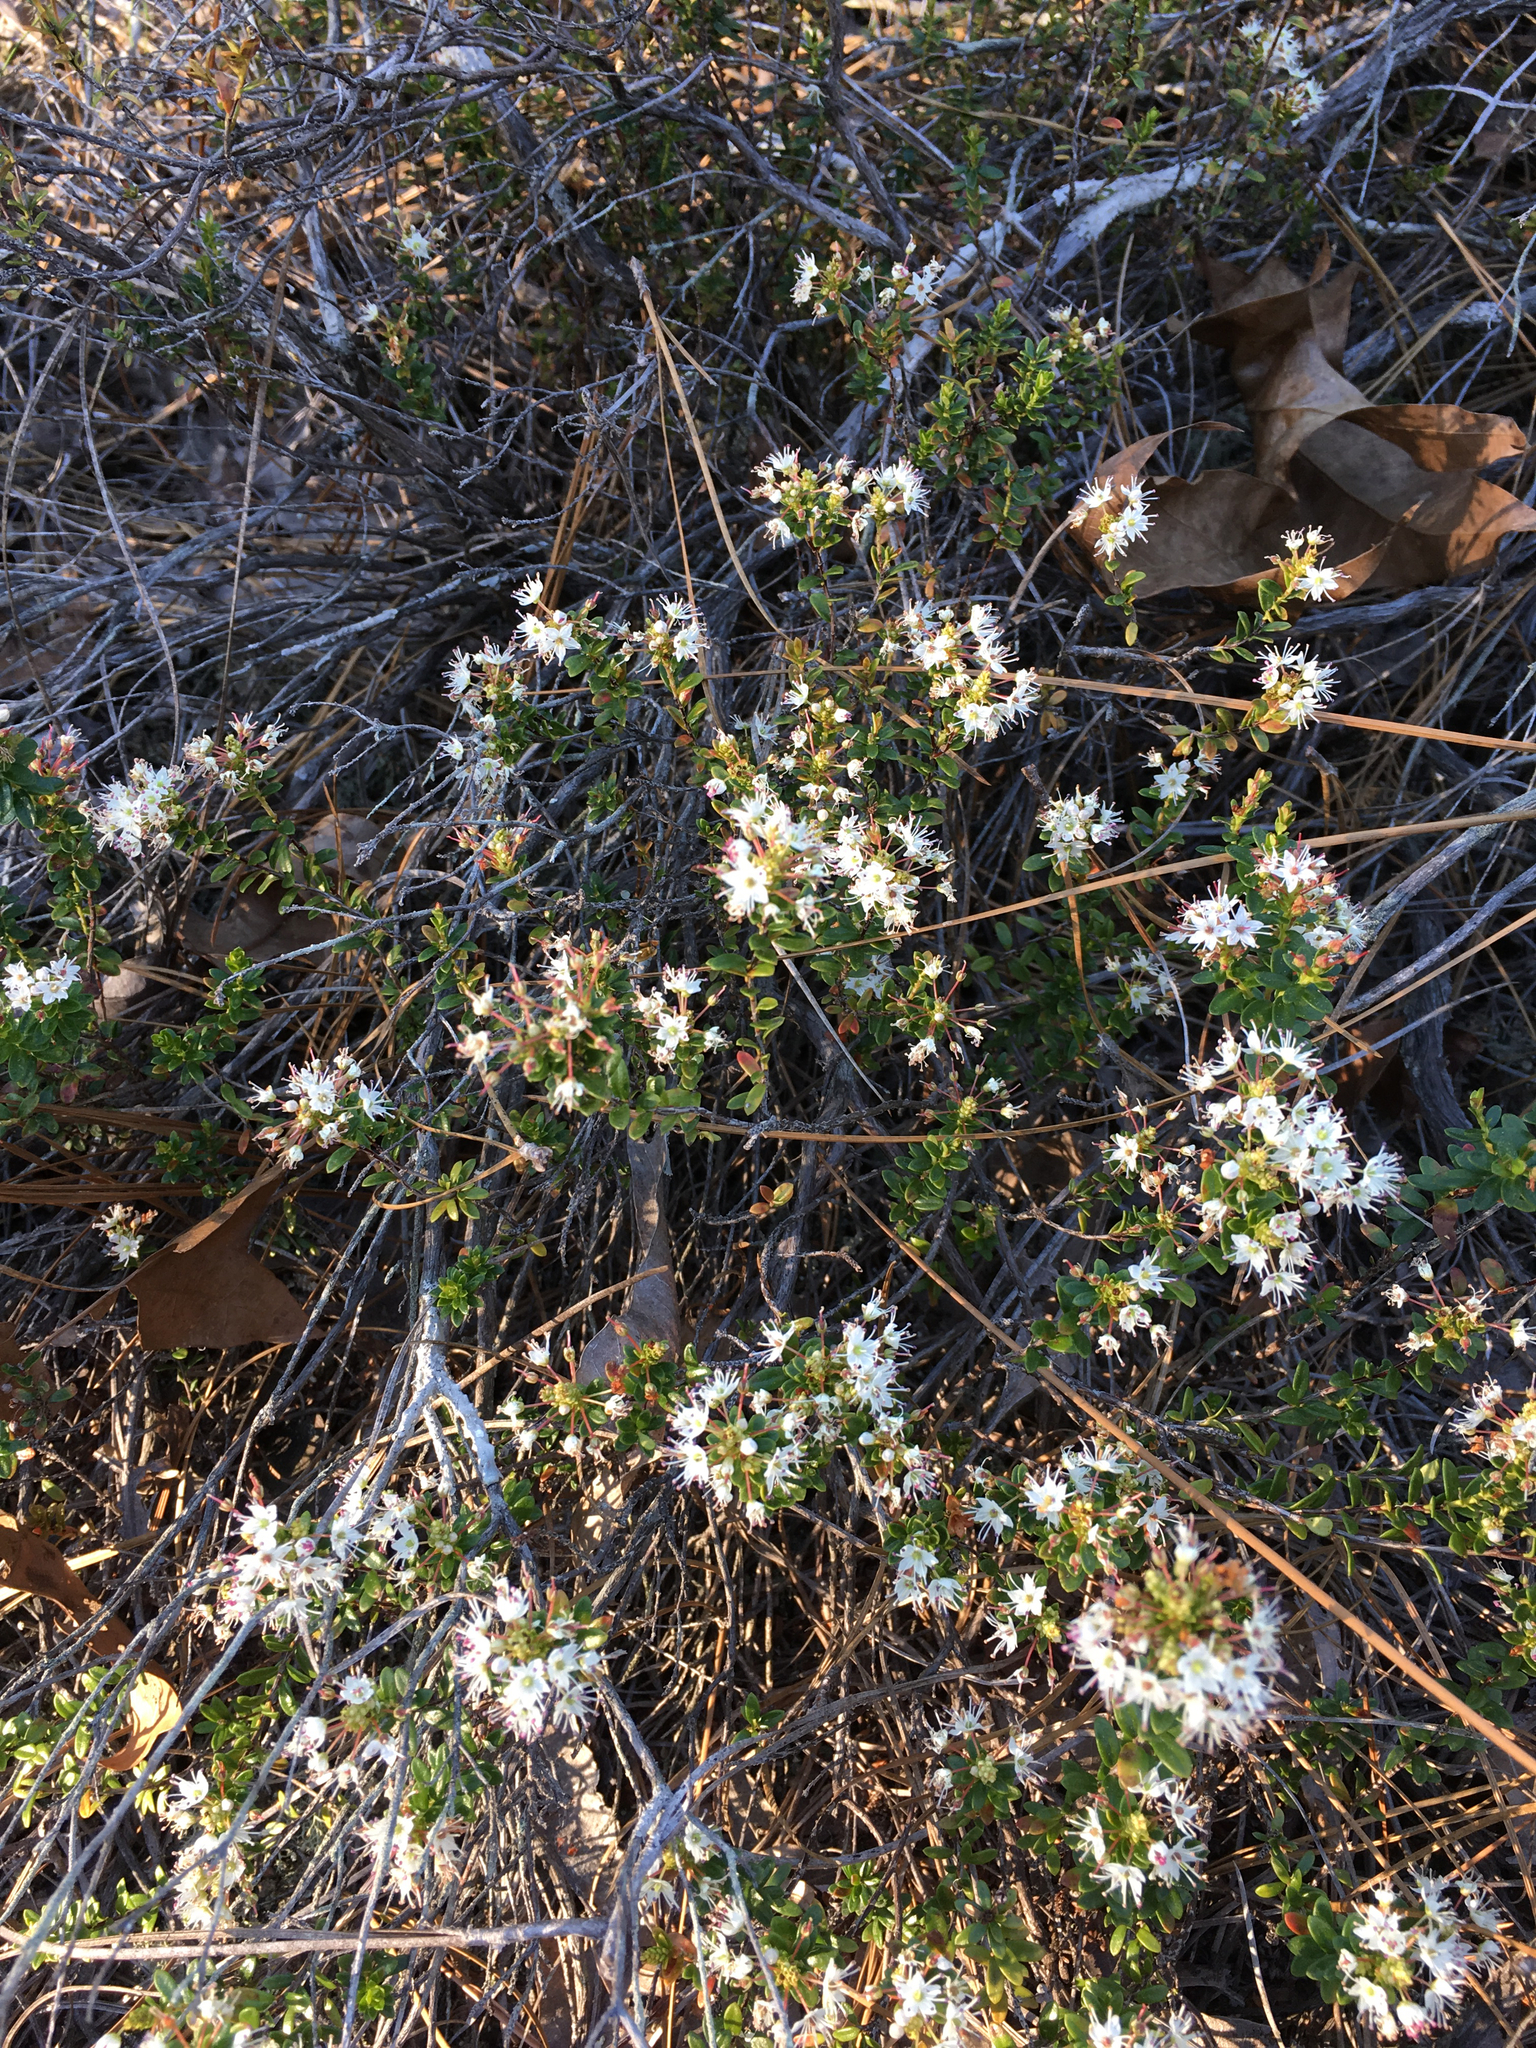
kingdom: Plantae
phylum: Tracheophyta
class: Magnoliopsida
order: Ericales
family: Ericaceae
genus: Kalmia
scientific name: Kalmia buxifolia
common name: Sandmyrtle
